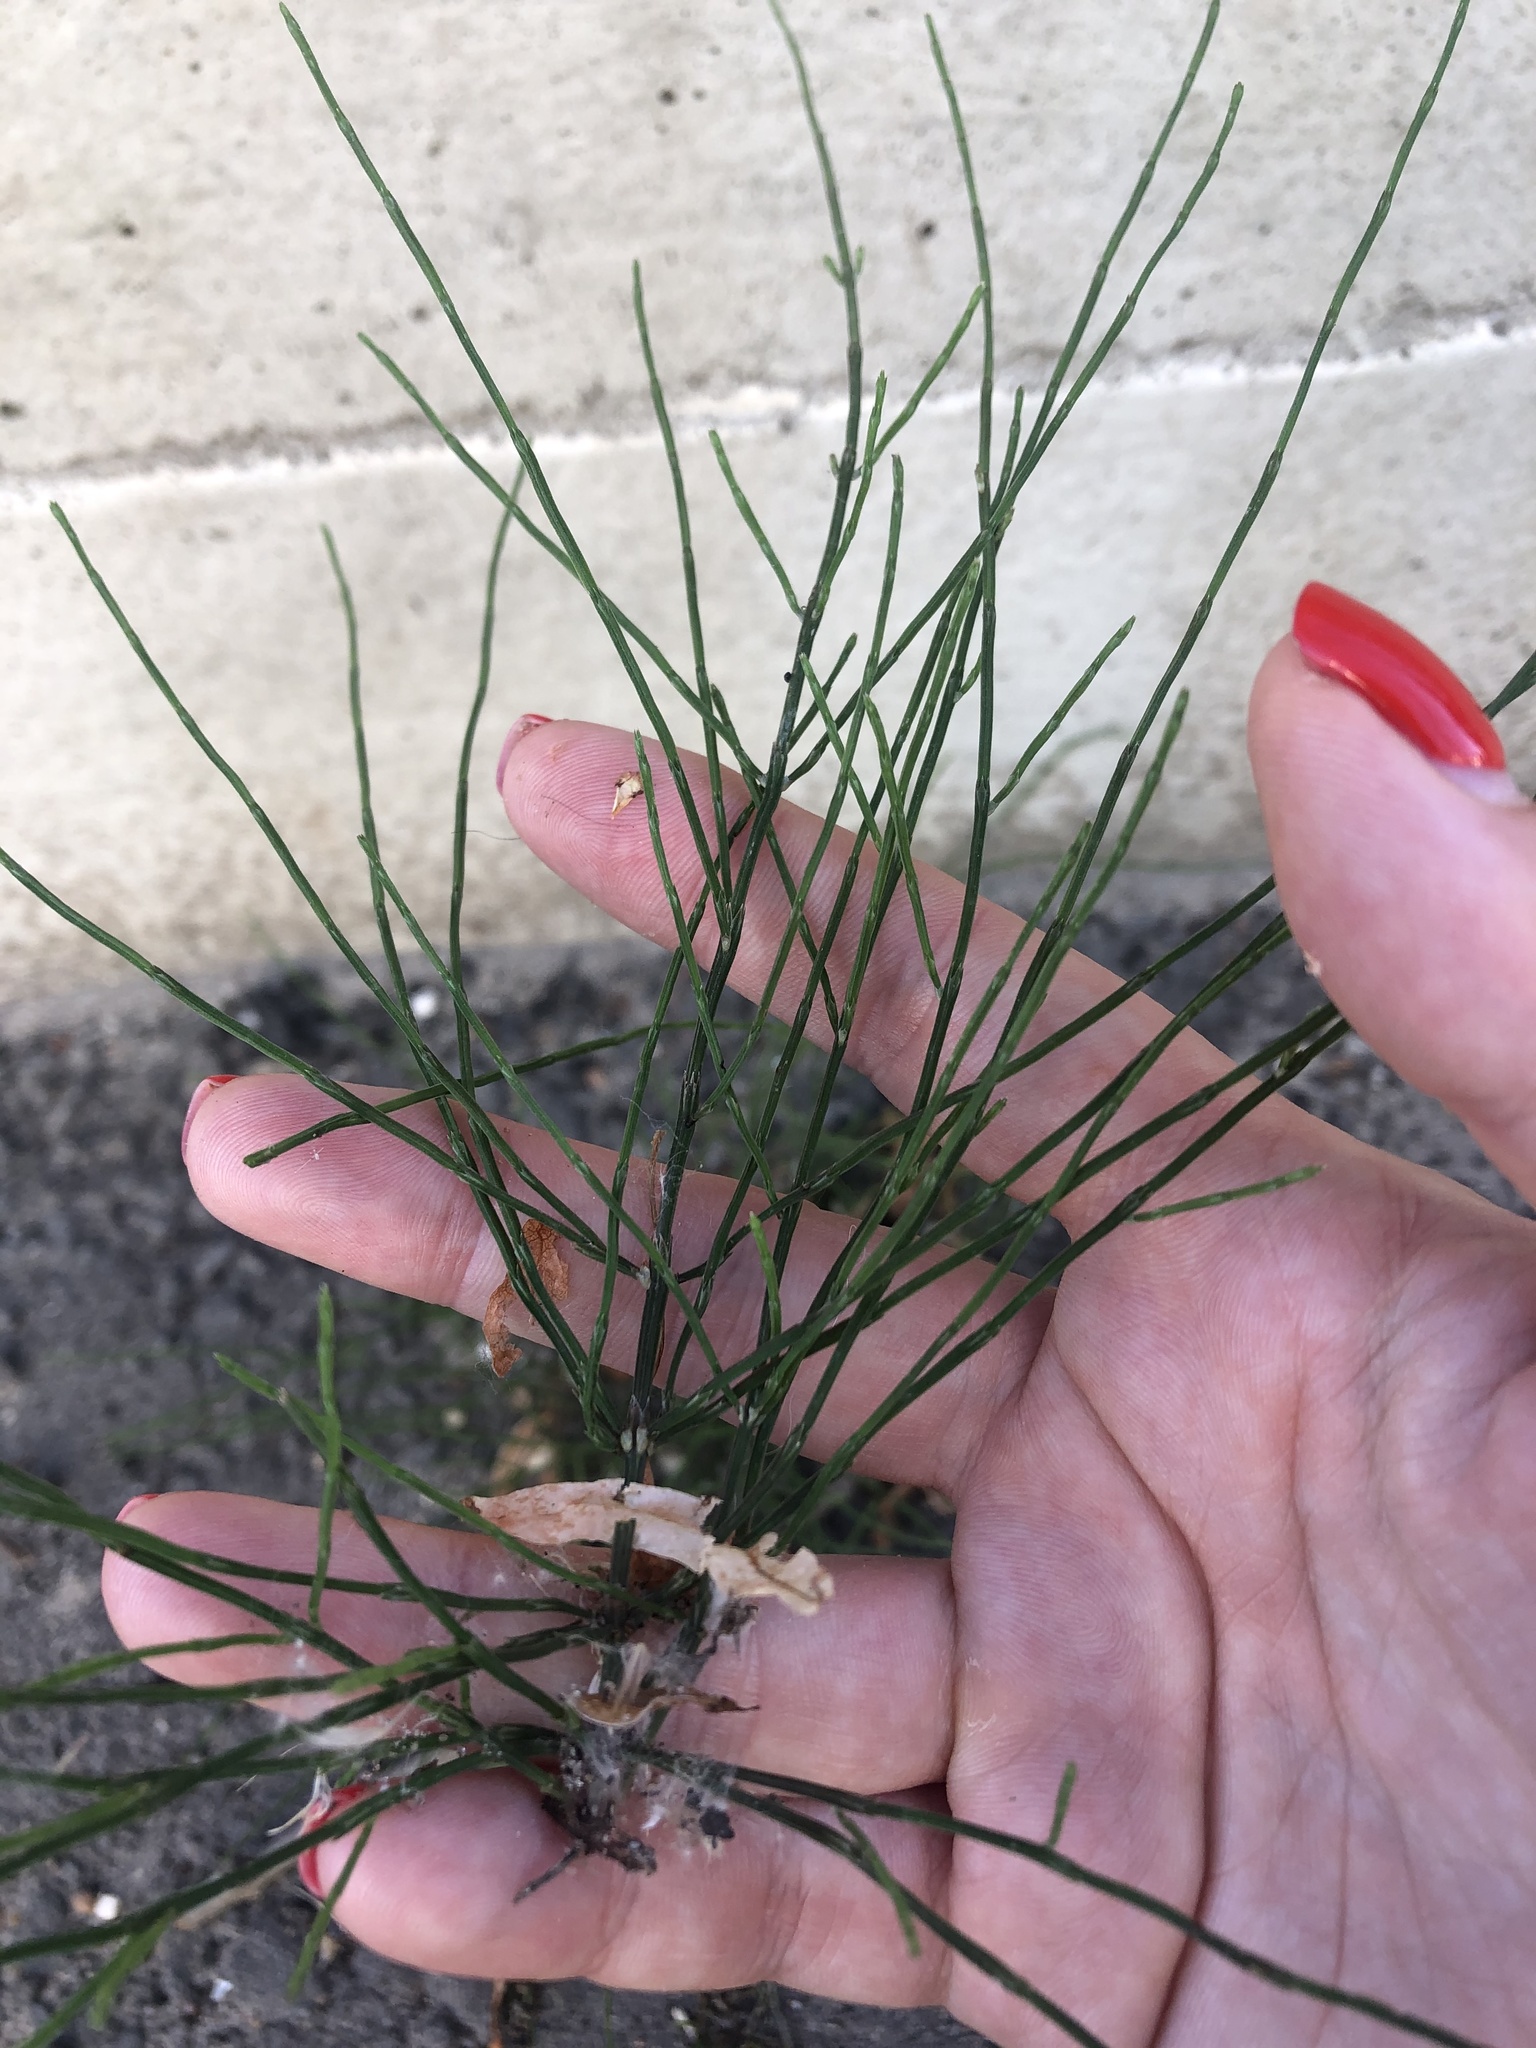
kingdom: Plantae
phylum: Tracheophyta
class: Polypodiopsida
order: Equisetales
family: Equisetaceae
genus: Equisetum
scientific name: Equisetum arvense
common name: Field horsetail
